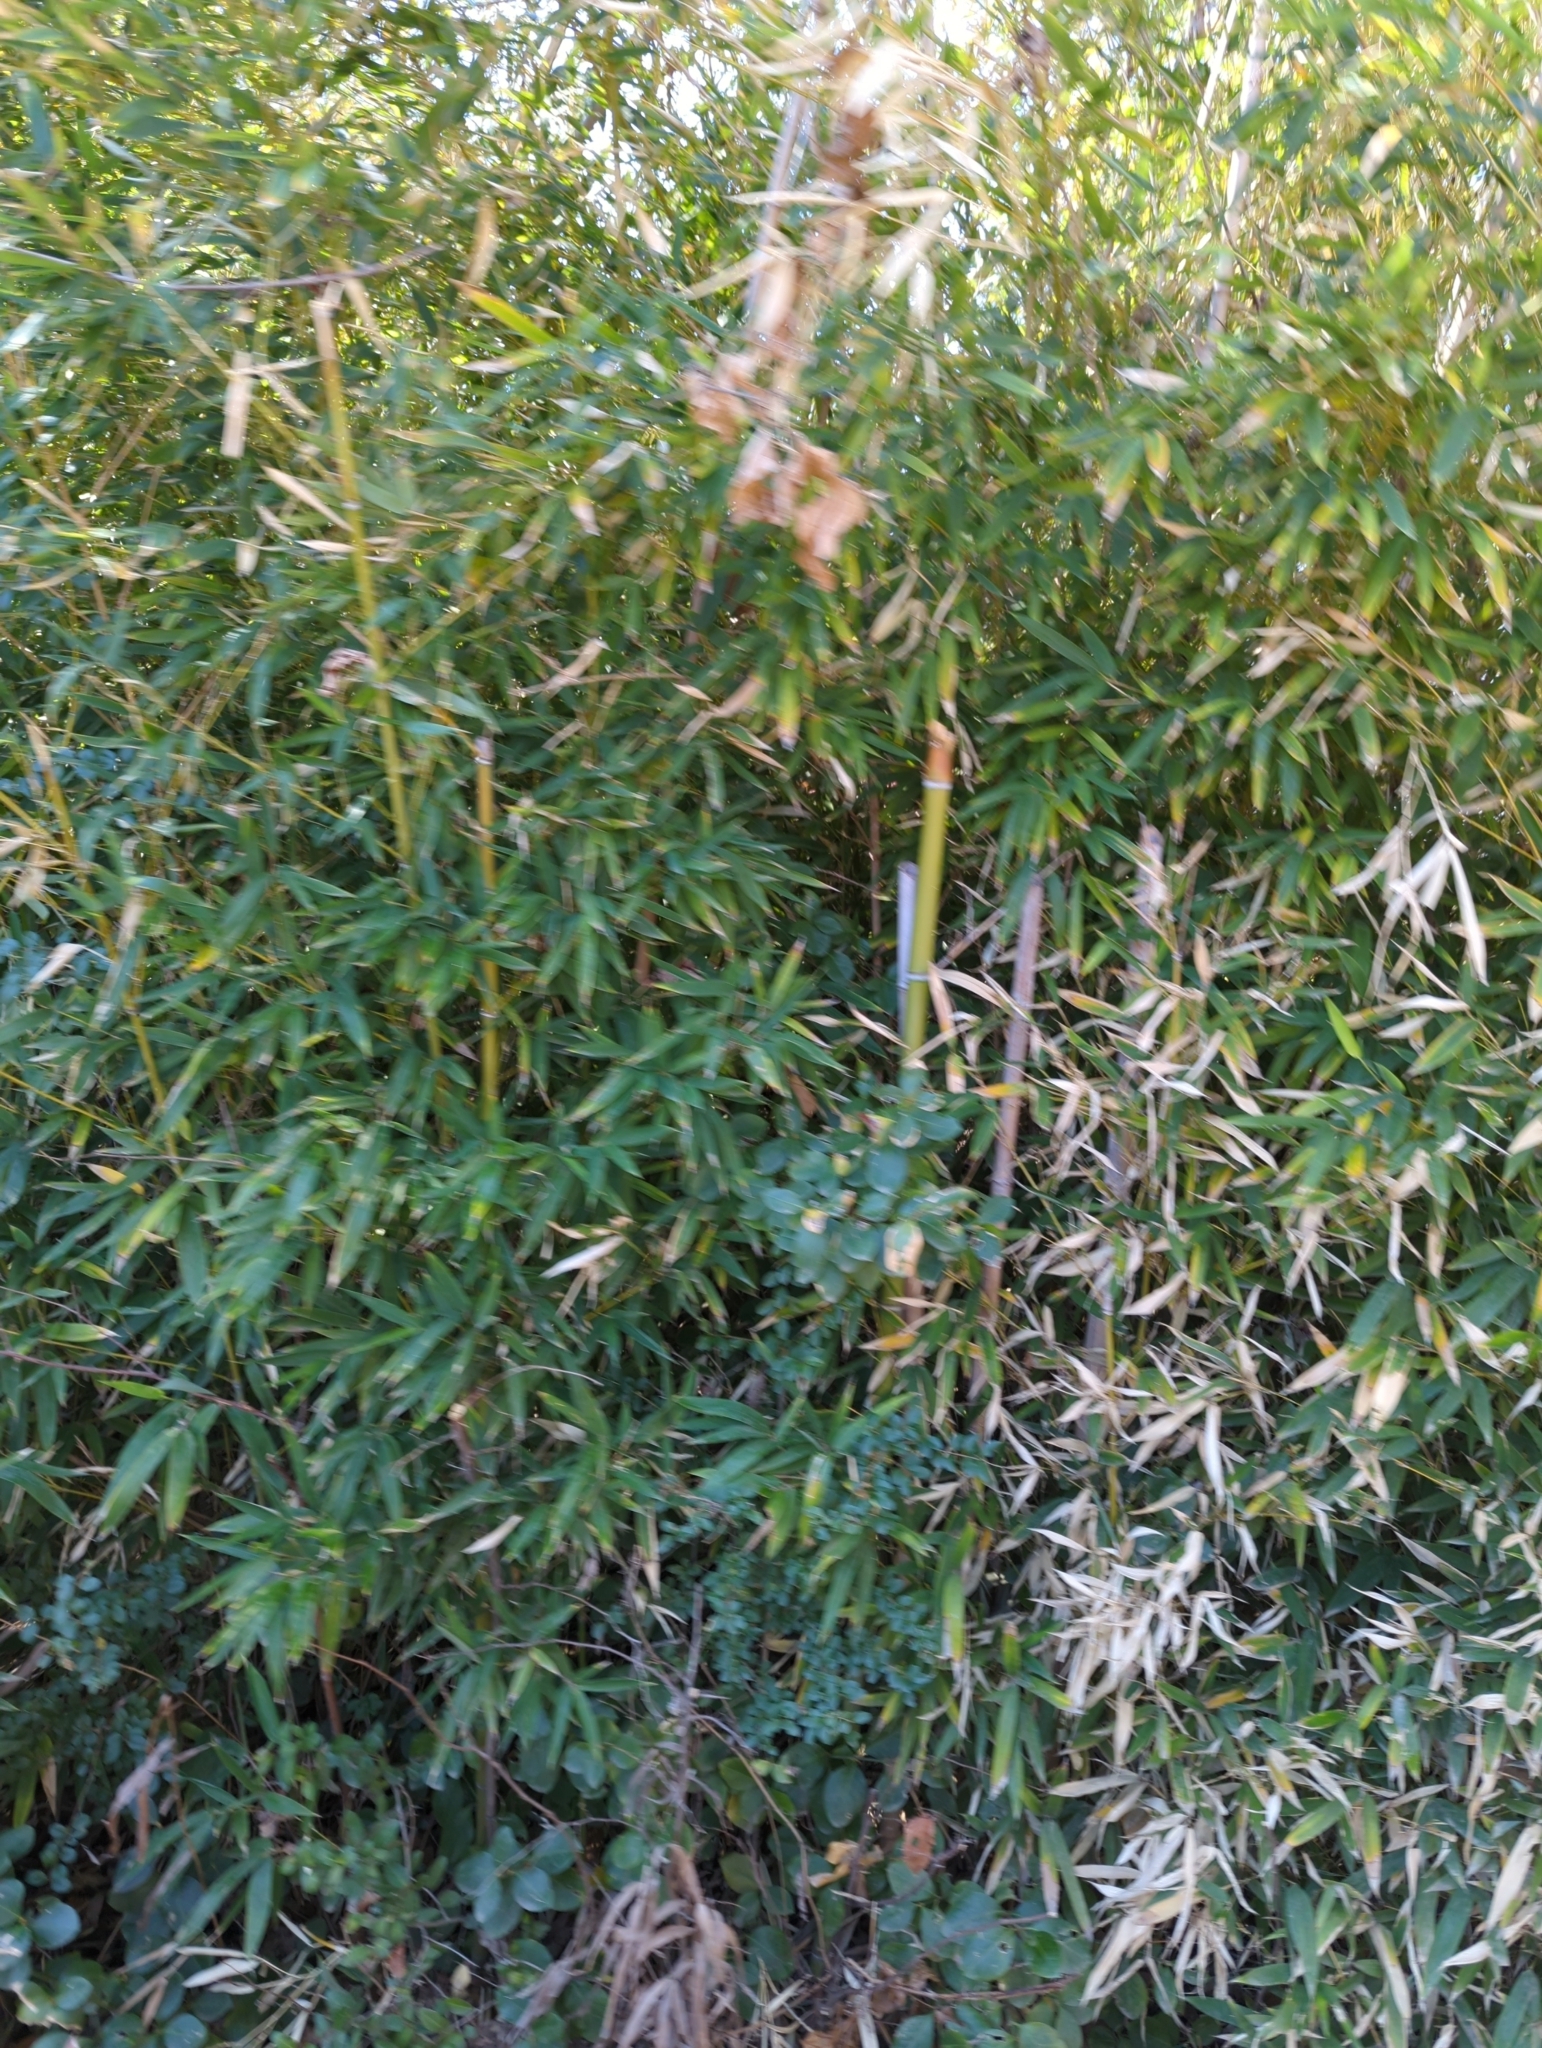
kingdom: Plantae
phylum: Tracheophyta
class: Liliopsida
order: Poales
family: Poaceae
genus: Phyllostachys
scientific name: Phyllostachys aurea
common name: Golden bamboo
